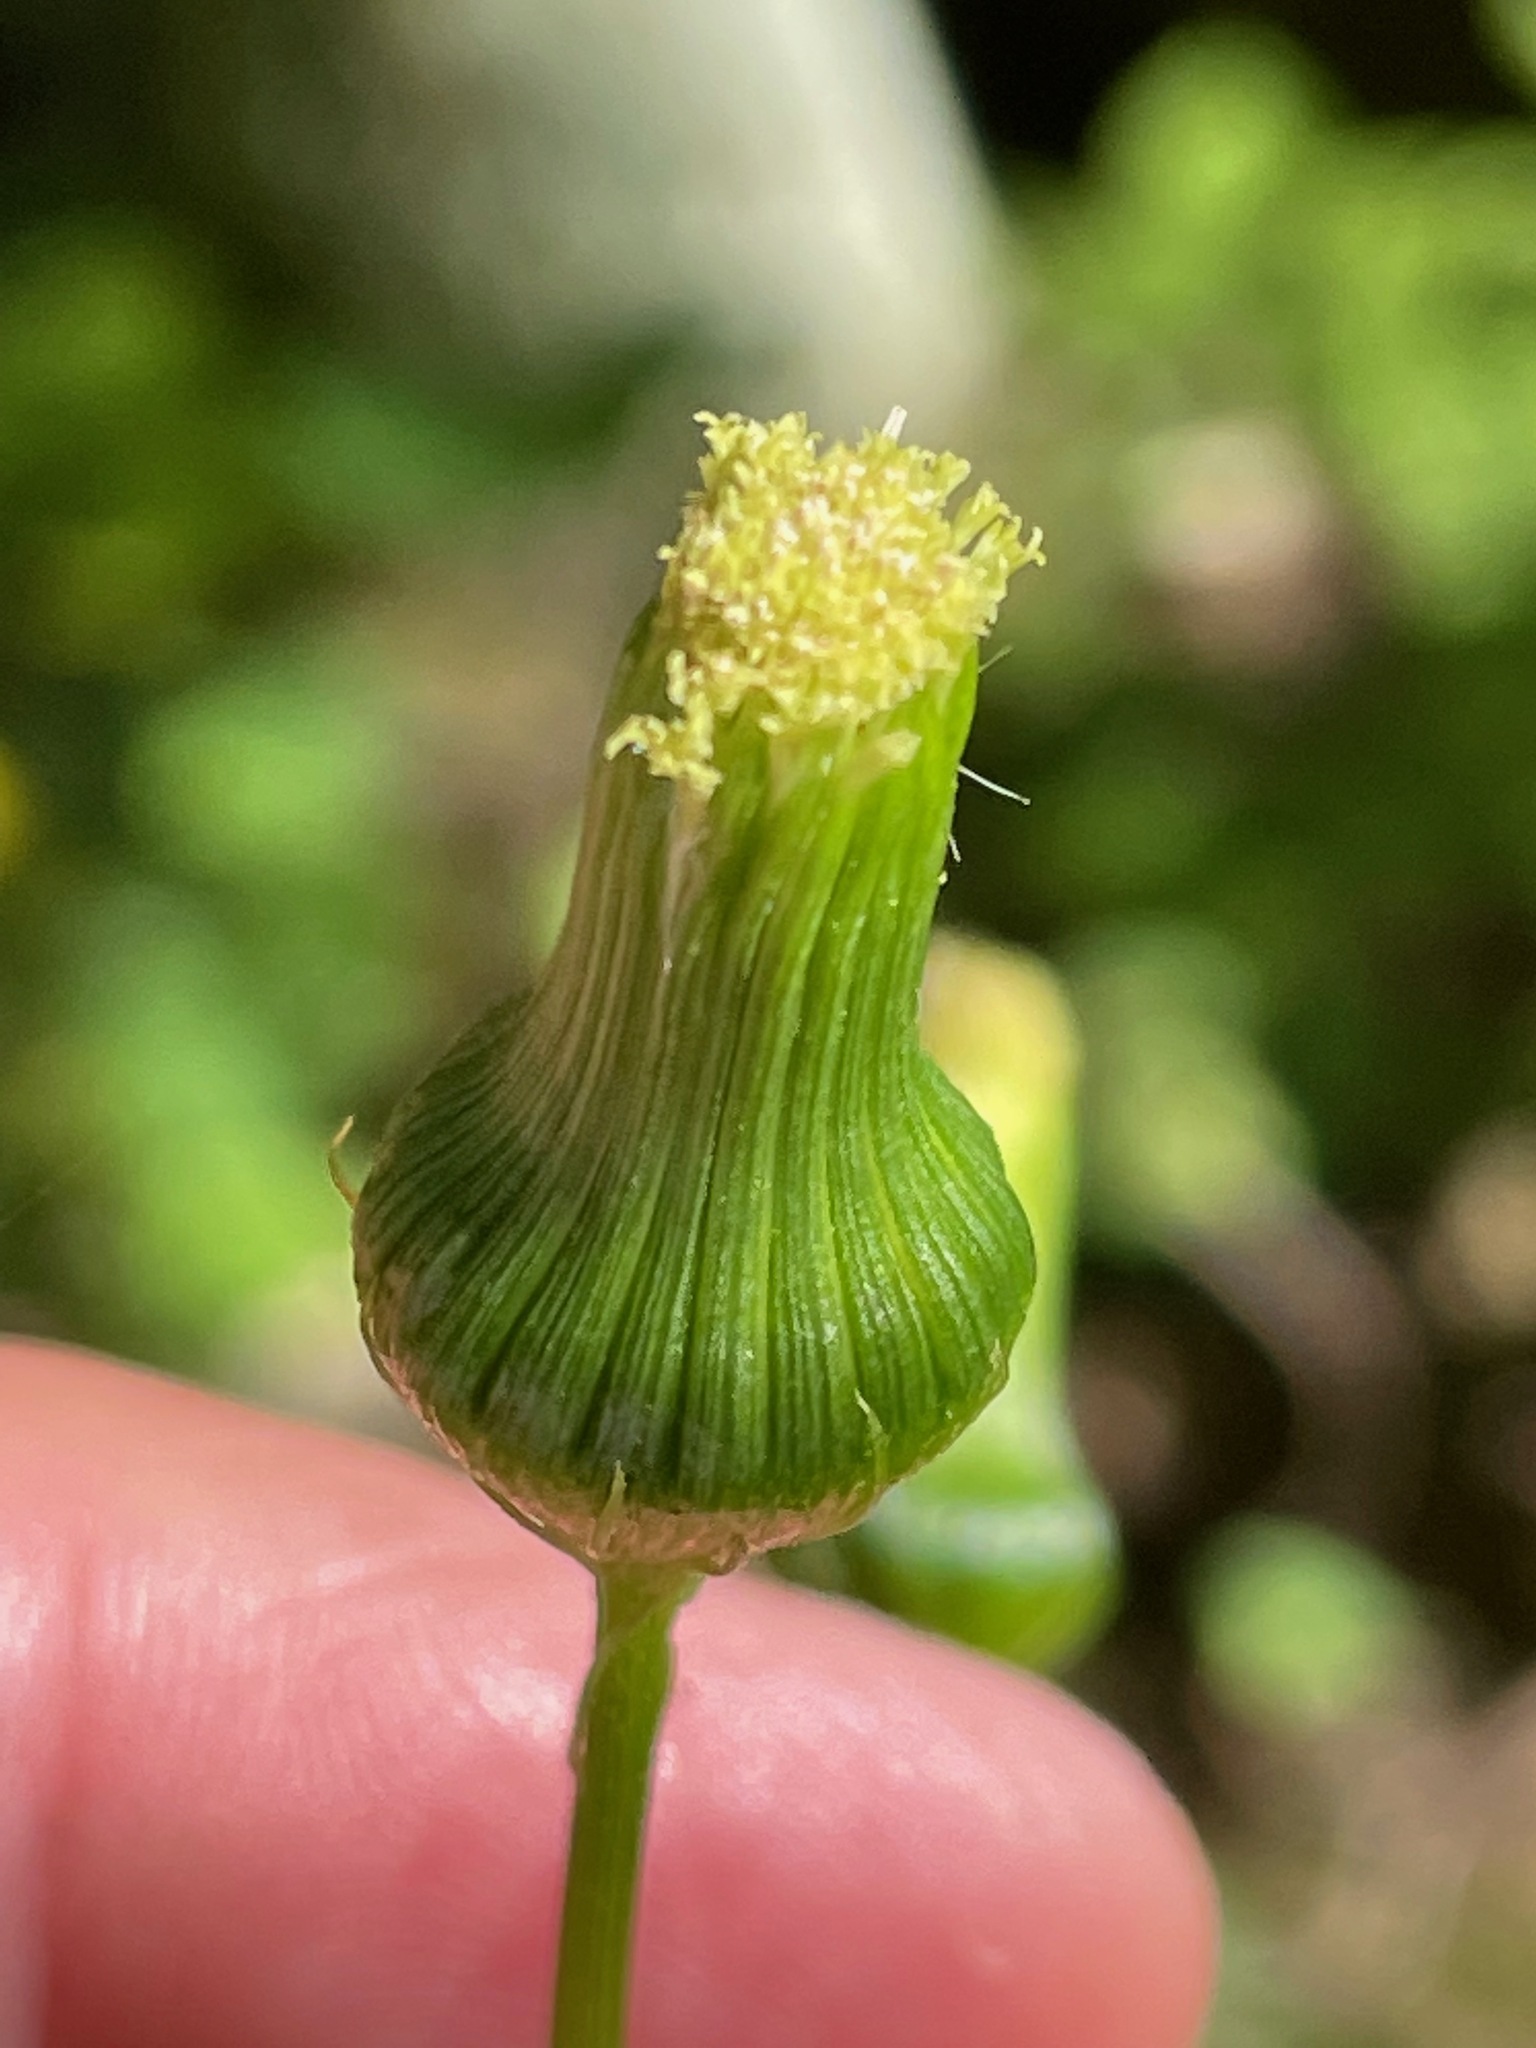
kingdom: Plantae
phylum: Tracheophyta
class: Magnoliopsida
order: Asterales
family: Asteraceae
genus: Erechtites
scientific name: Erechtites hieraciifolius
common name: American burnweed
